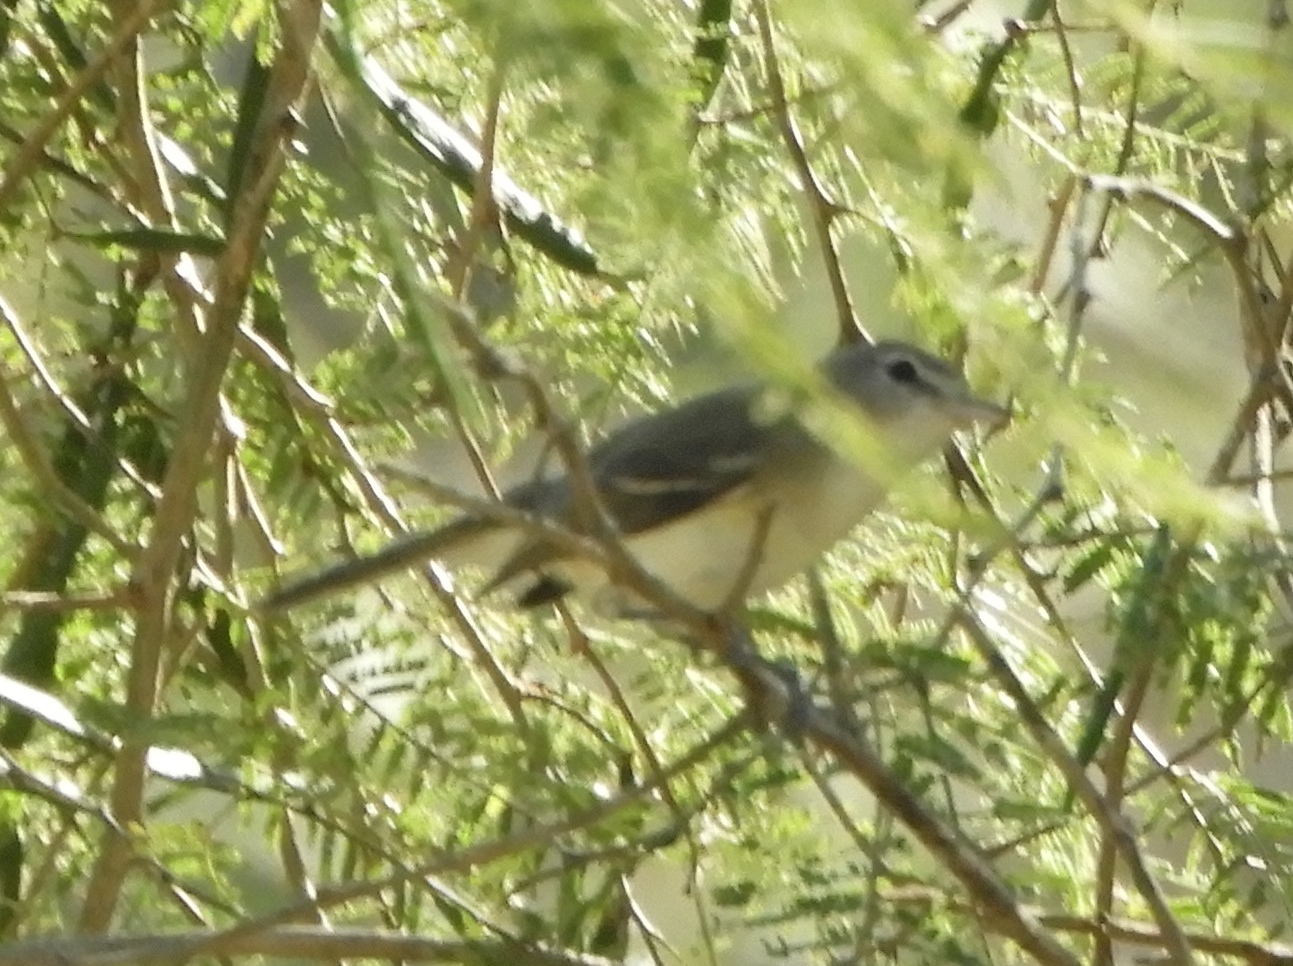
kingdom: Animalia
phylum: Chordata
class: Aves
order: Passeriformes
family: Vireonidae
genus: Vireo
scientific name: Vireo bellii
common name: Bell's vireo
